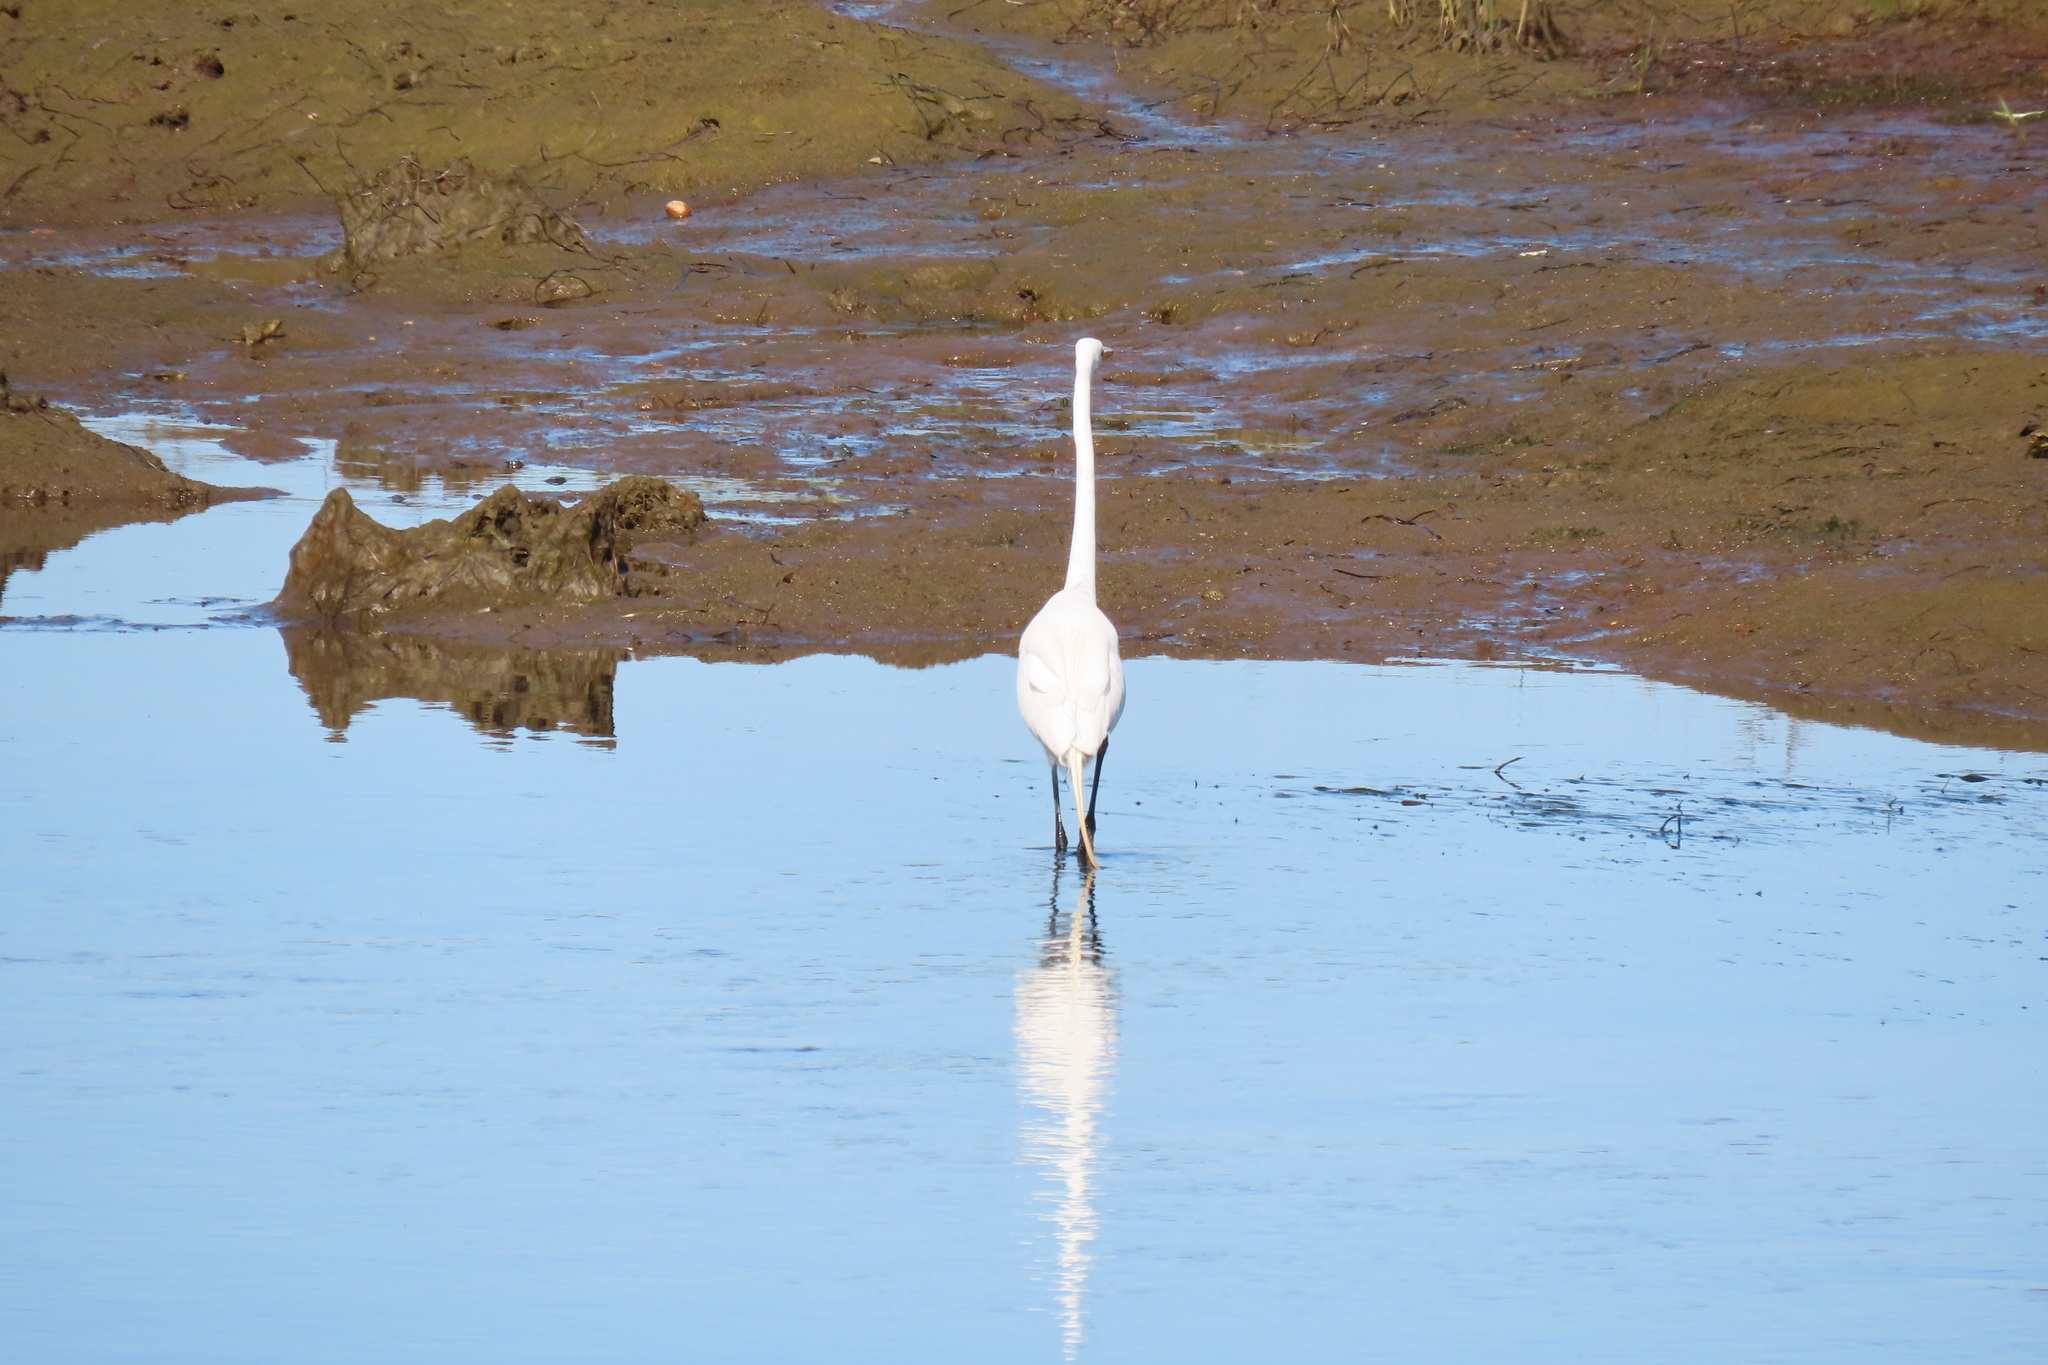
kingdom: Animalia
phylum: Chordata
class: Aves
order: Pelecaniformes
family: Ardeidae
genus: Ardea
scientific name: Ardea alba
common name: Great egret
